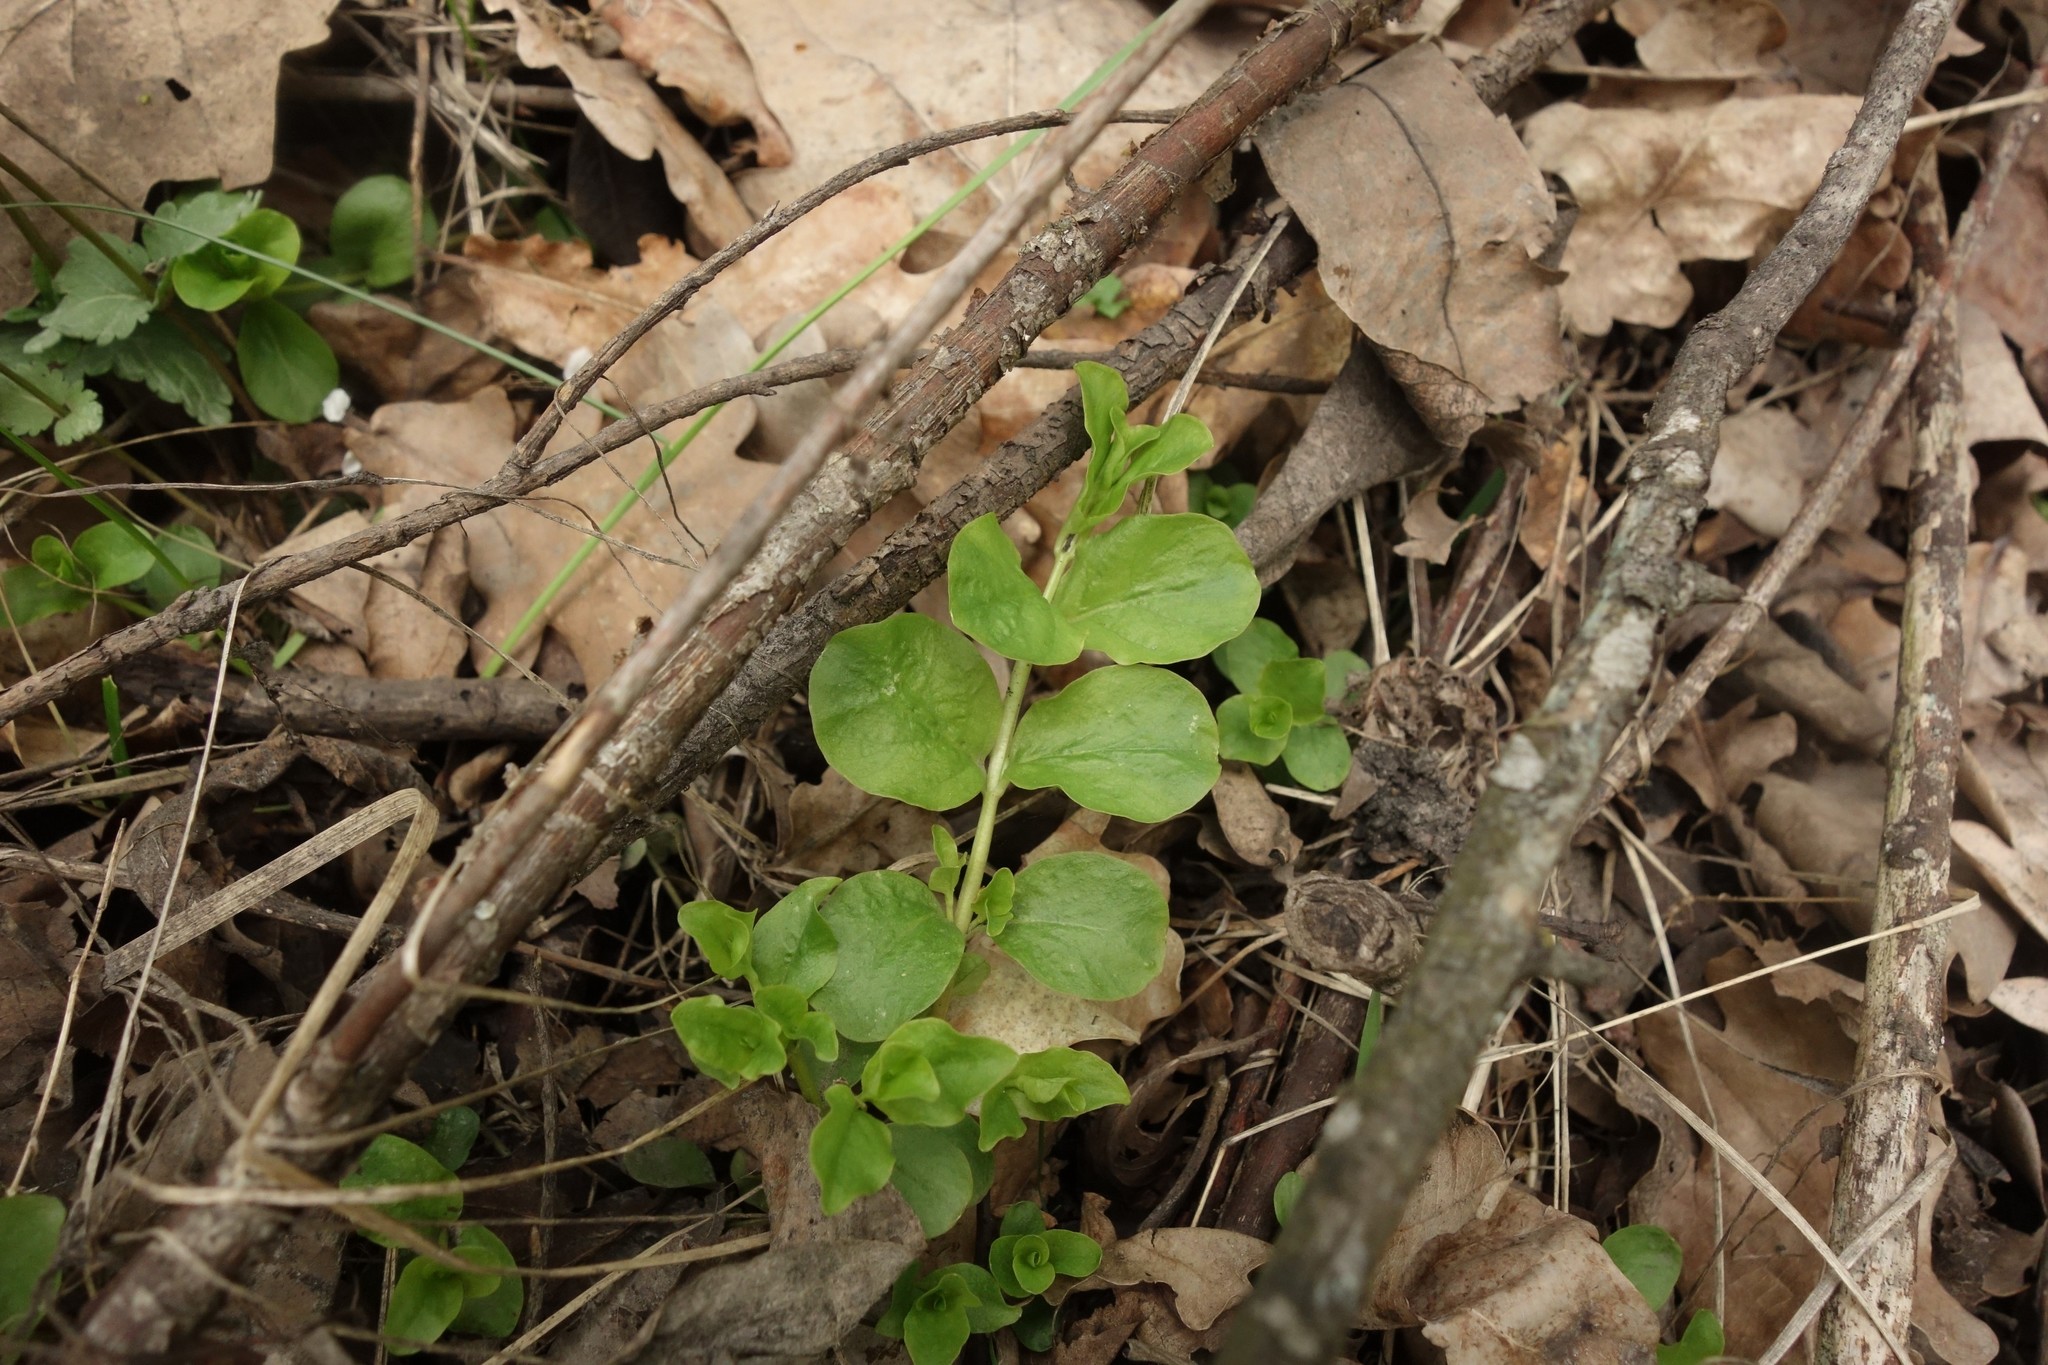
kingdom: Plantae
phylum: Tracheophyta
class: Magnoliopsida
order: Ericales
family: Primulaceae
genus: Lysimachia
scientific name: Lysimachia nummularia
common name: Moneywort
